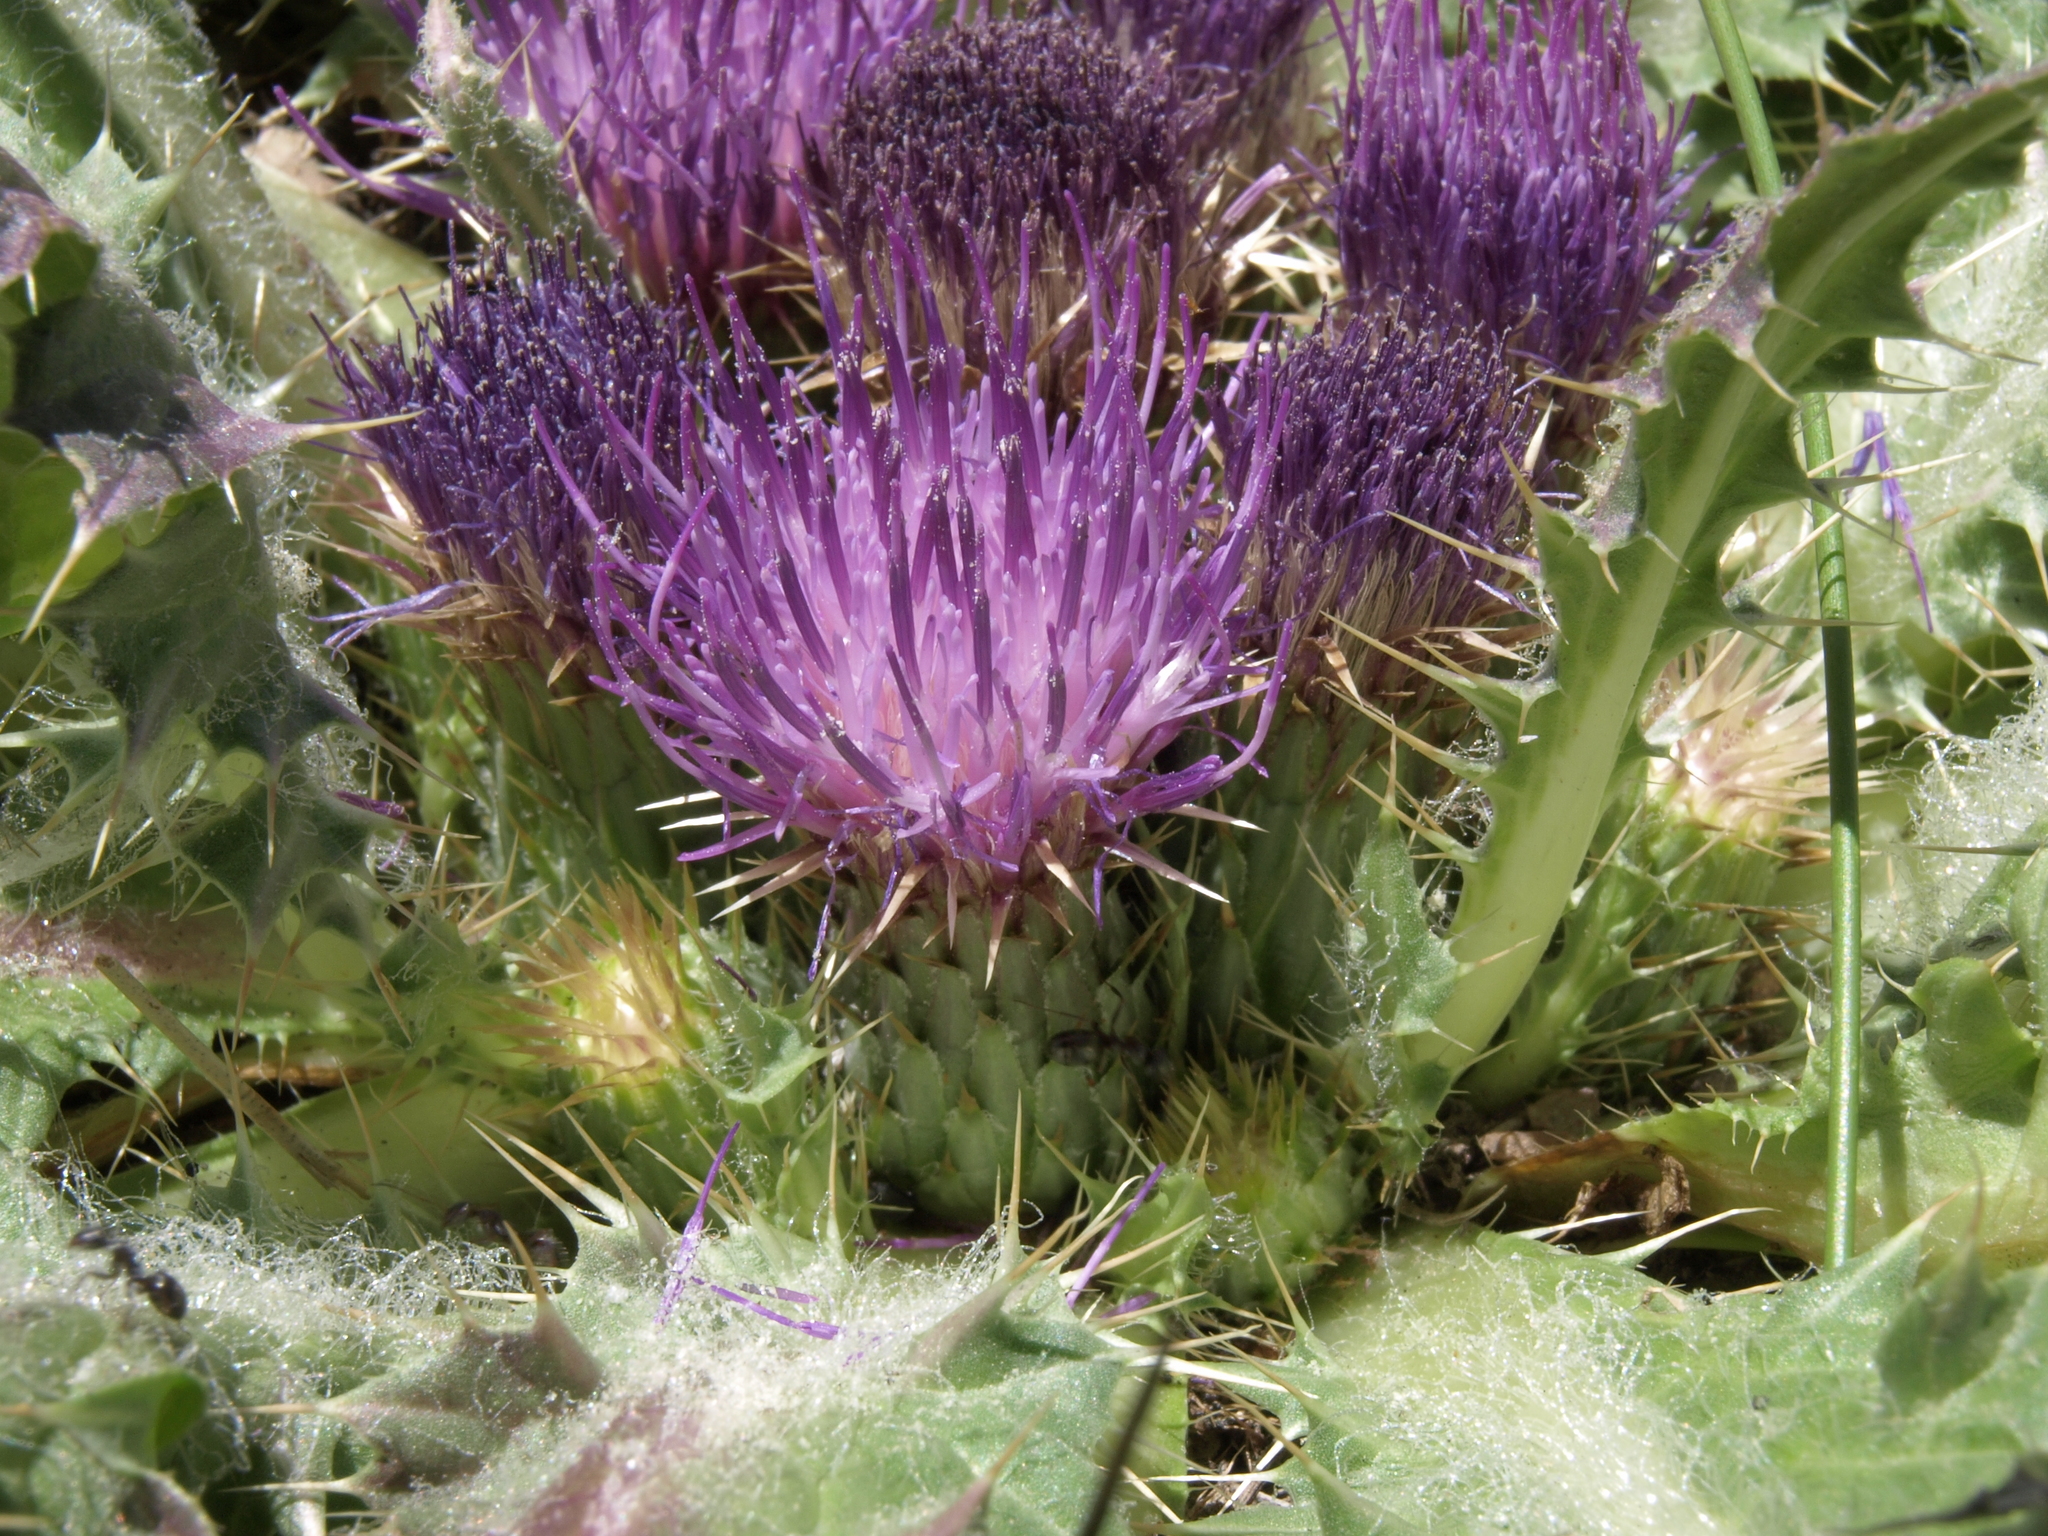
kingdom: Plantae
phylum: Tracheophyta
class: Magnoliopsida
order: Asterales
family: Asteraceae
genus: Cirsium
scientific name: Cirsium congdonii
